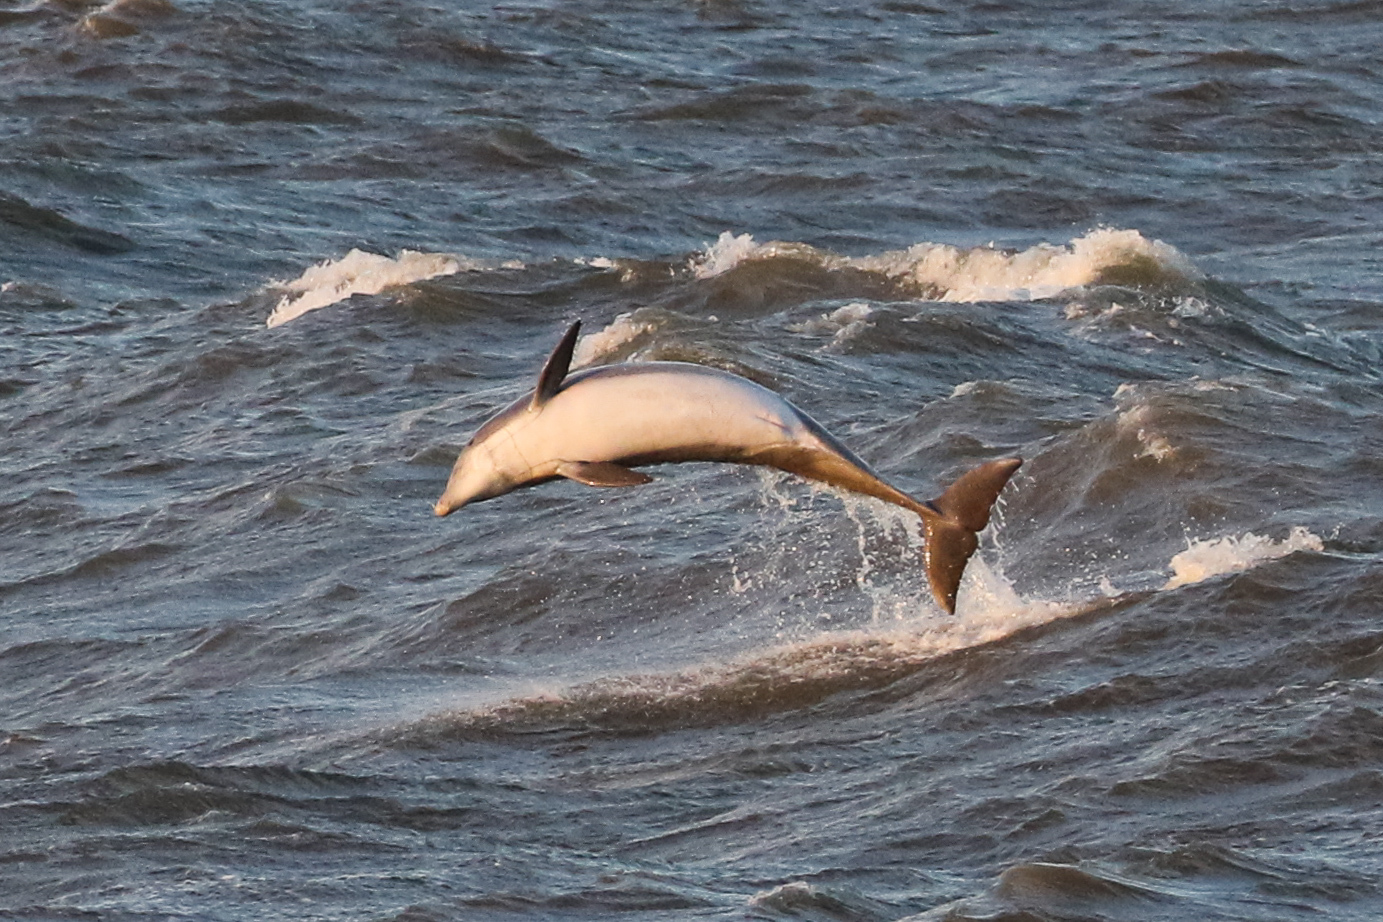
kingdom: Animalia
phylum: Chordata
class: Mammalia
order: Cetacea
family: Delphinidae
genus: Tursiops
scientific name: Tursiops truncatus
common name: Bottlenose dolphin
